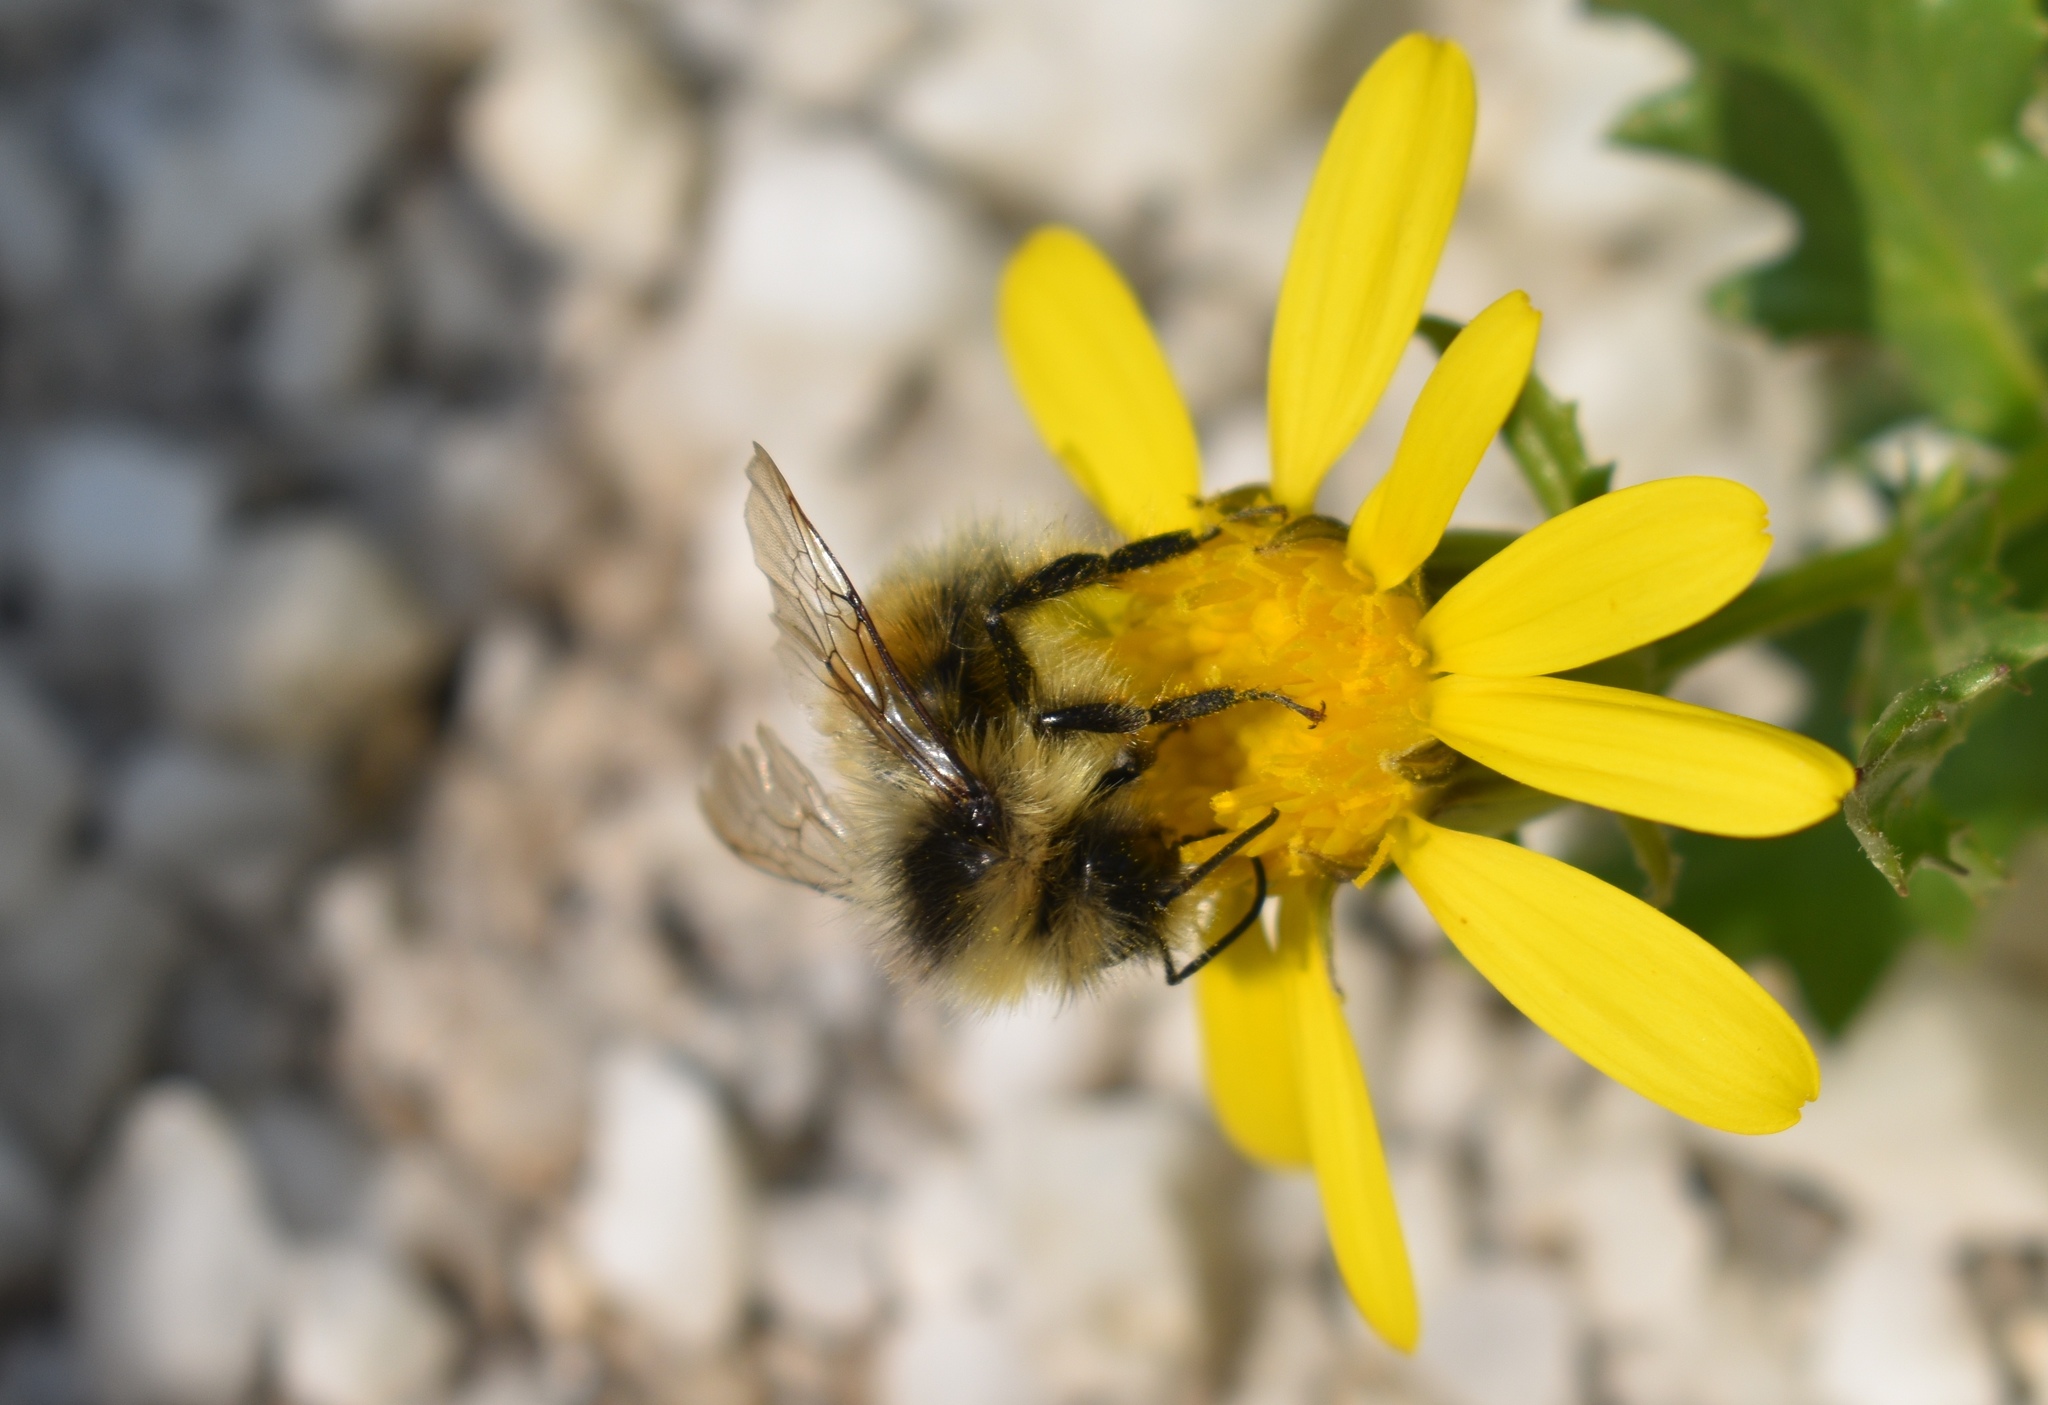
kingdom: Animalia
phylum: Arthropoda
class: Insecta
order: Hymenoptera
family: Apidae
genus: Pyrobombus
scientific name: Pyrobombus
